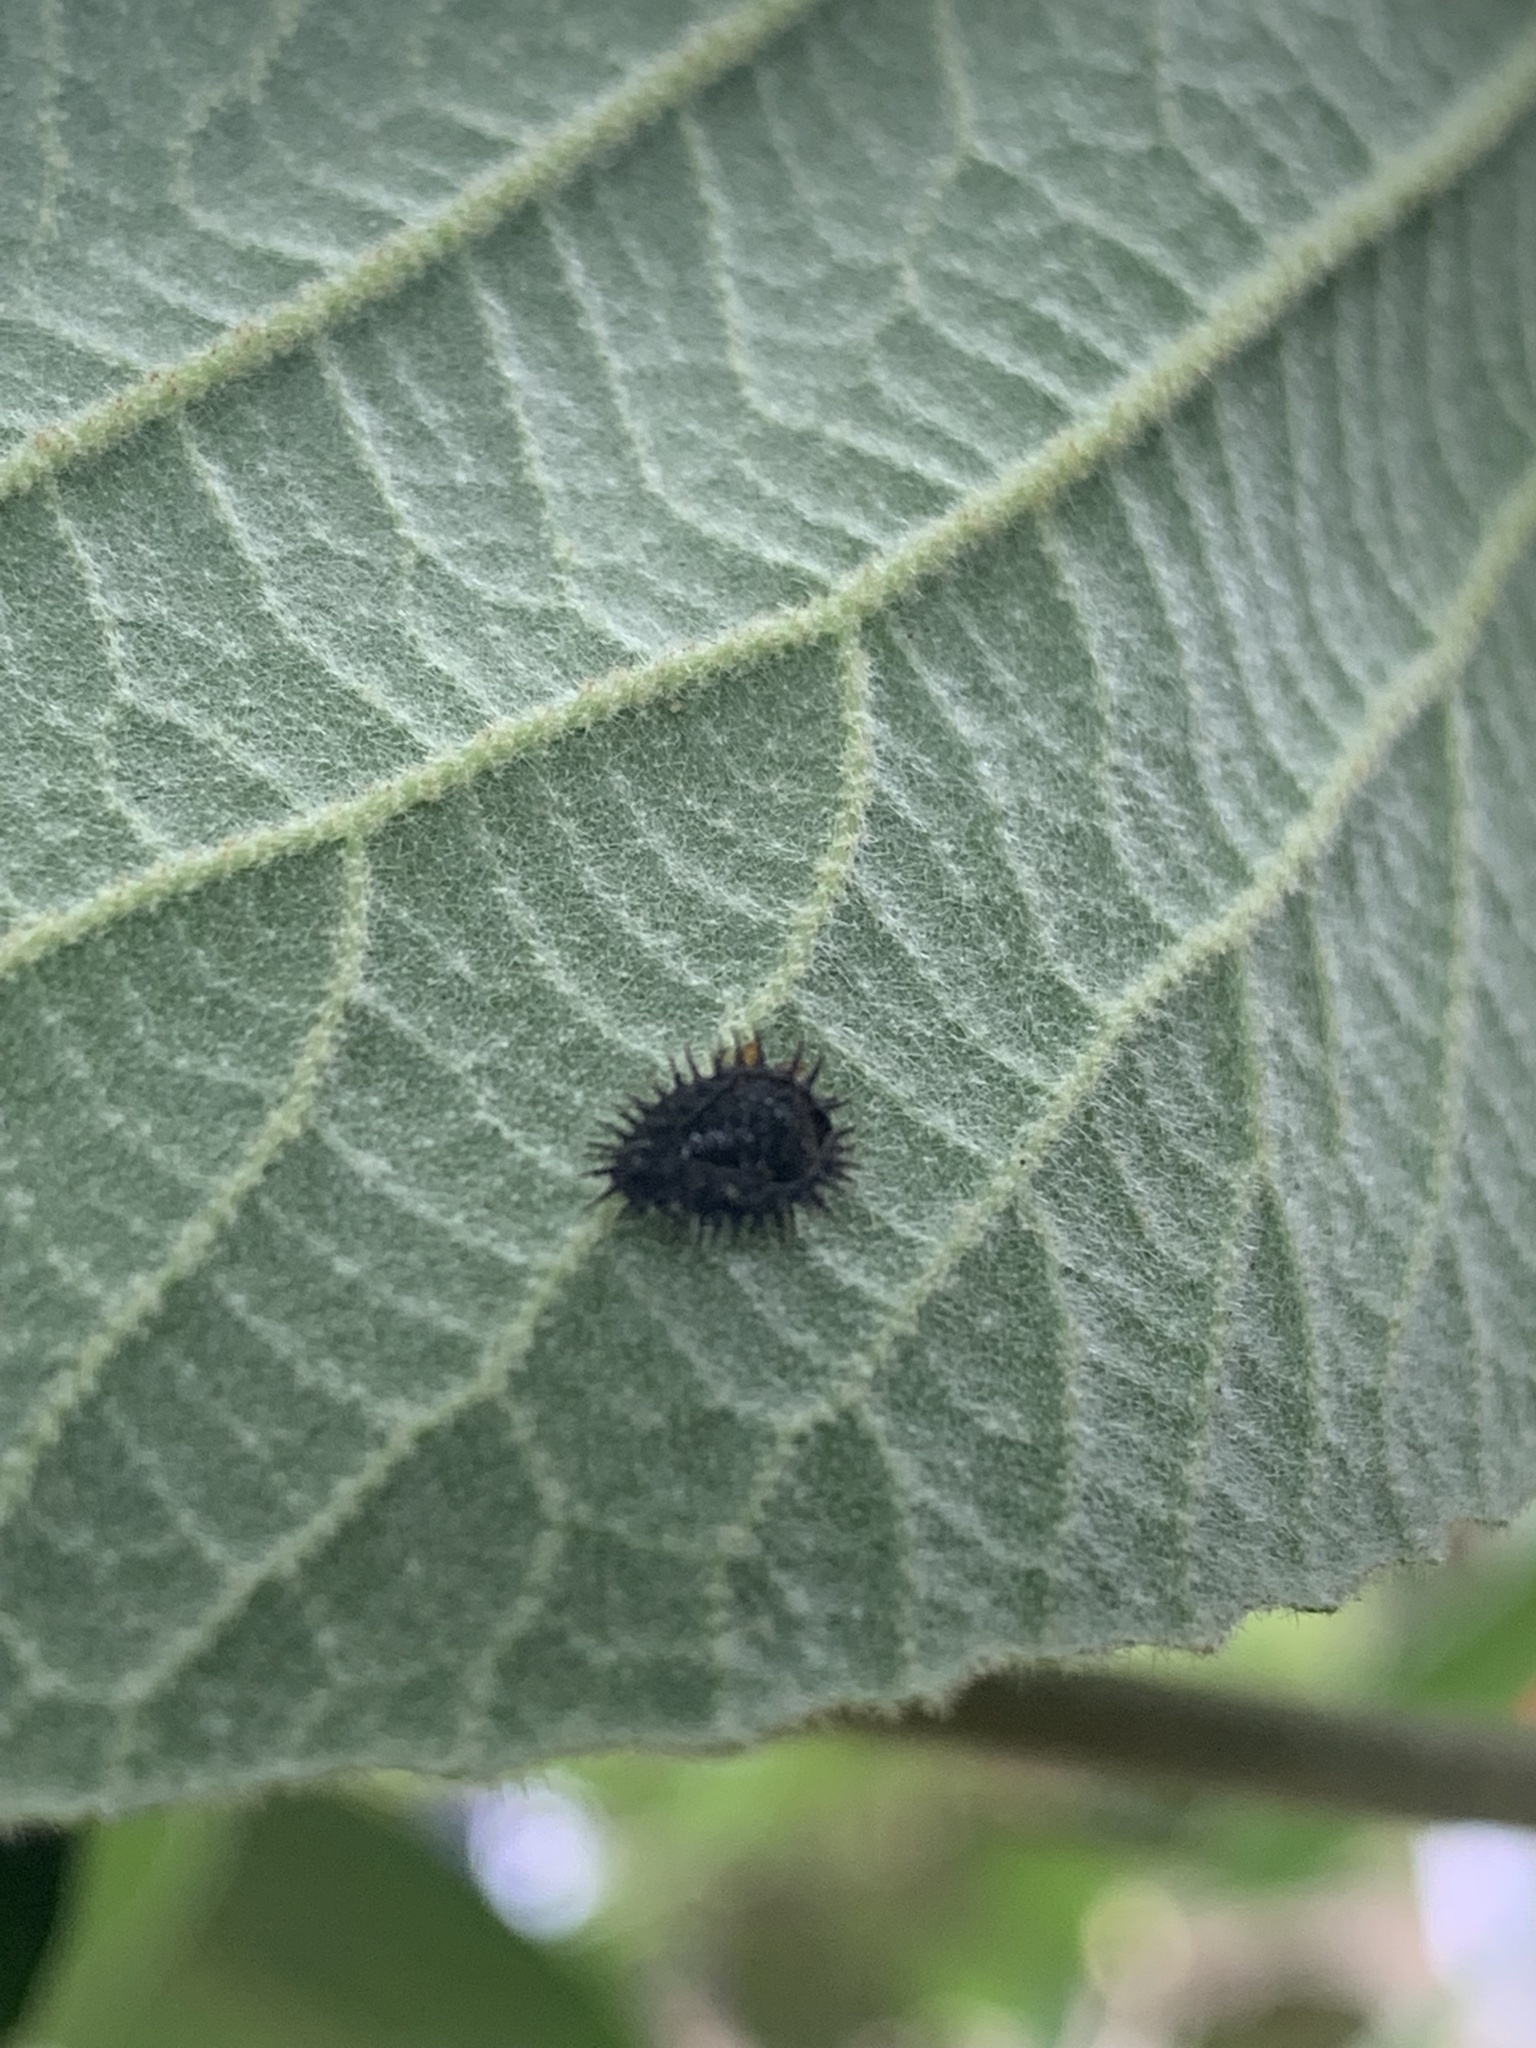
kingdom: Animalia
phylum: Arthropoda
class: Insecta
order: Coleoptera
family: Coccinellidae
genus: Chilocorus
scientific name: Chilocorus renipustulatus
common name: Kidney-spot ladybird
